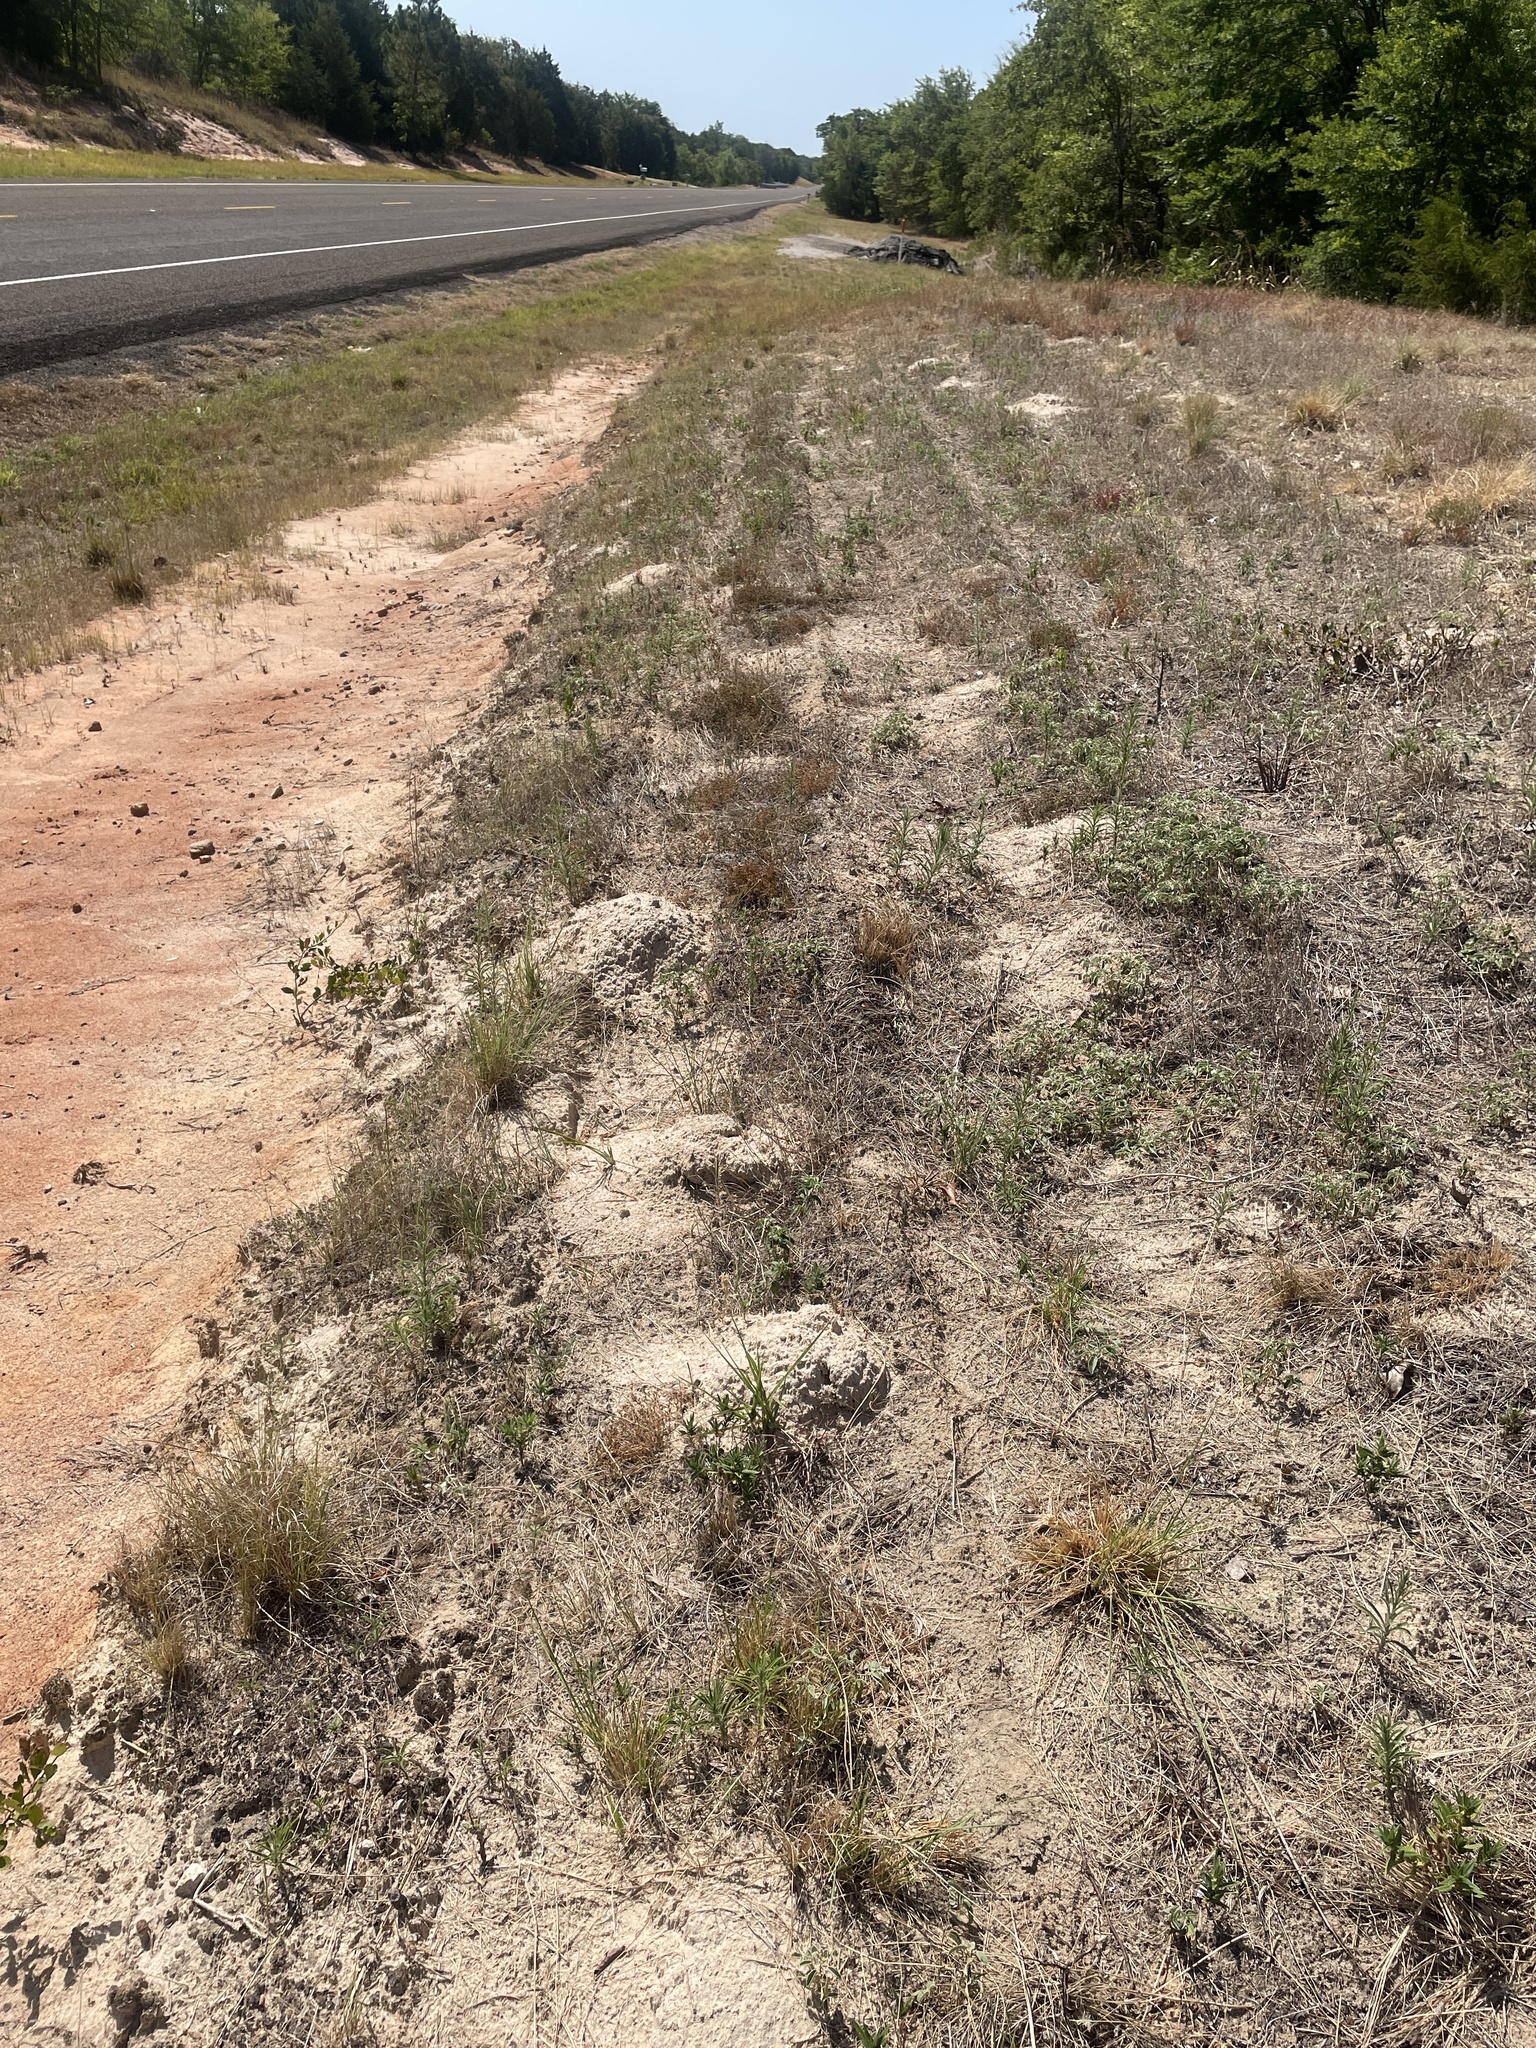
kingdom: Animalia
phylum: Chordata
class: Mammalia
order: Rodentia
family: Geomyidae
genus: Geomys
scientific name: Geomys breviceps
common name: Baird's pocket gopher
